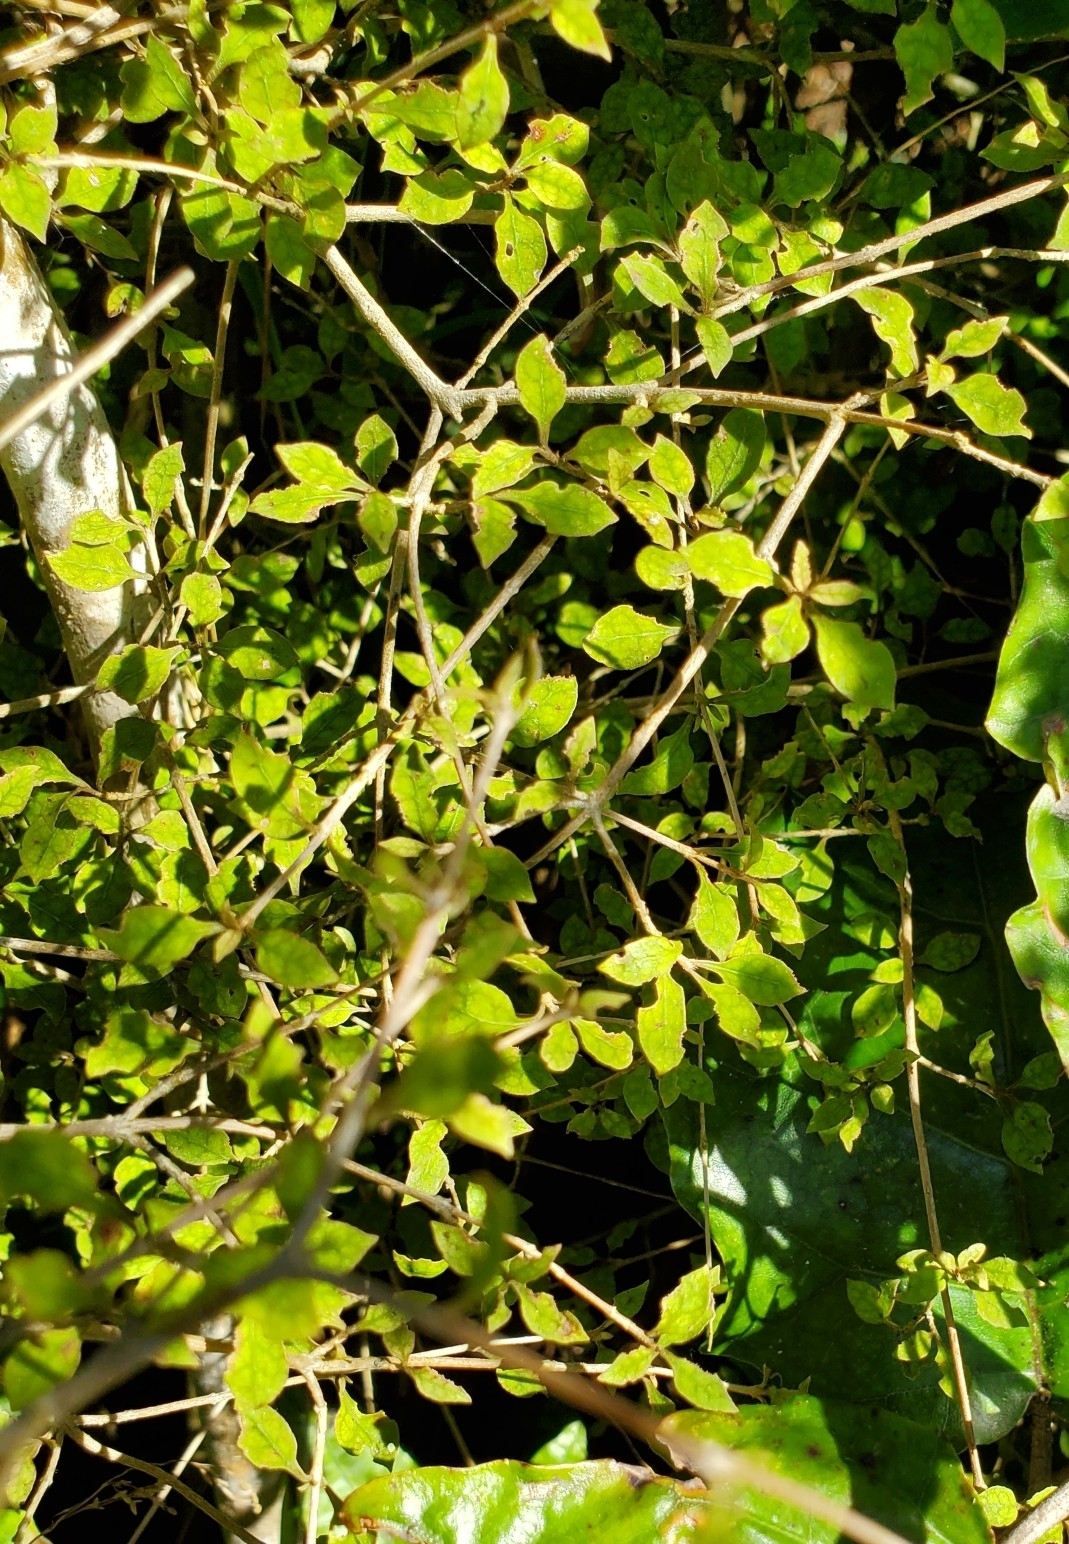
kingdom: Plantae
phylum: Tracheophyta
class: Magnoliopsida
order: Gentianales
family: Rubiaceae
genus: Coprosma
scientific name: Coprosma areolata
